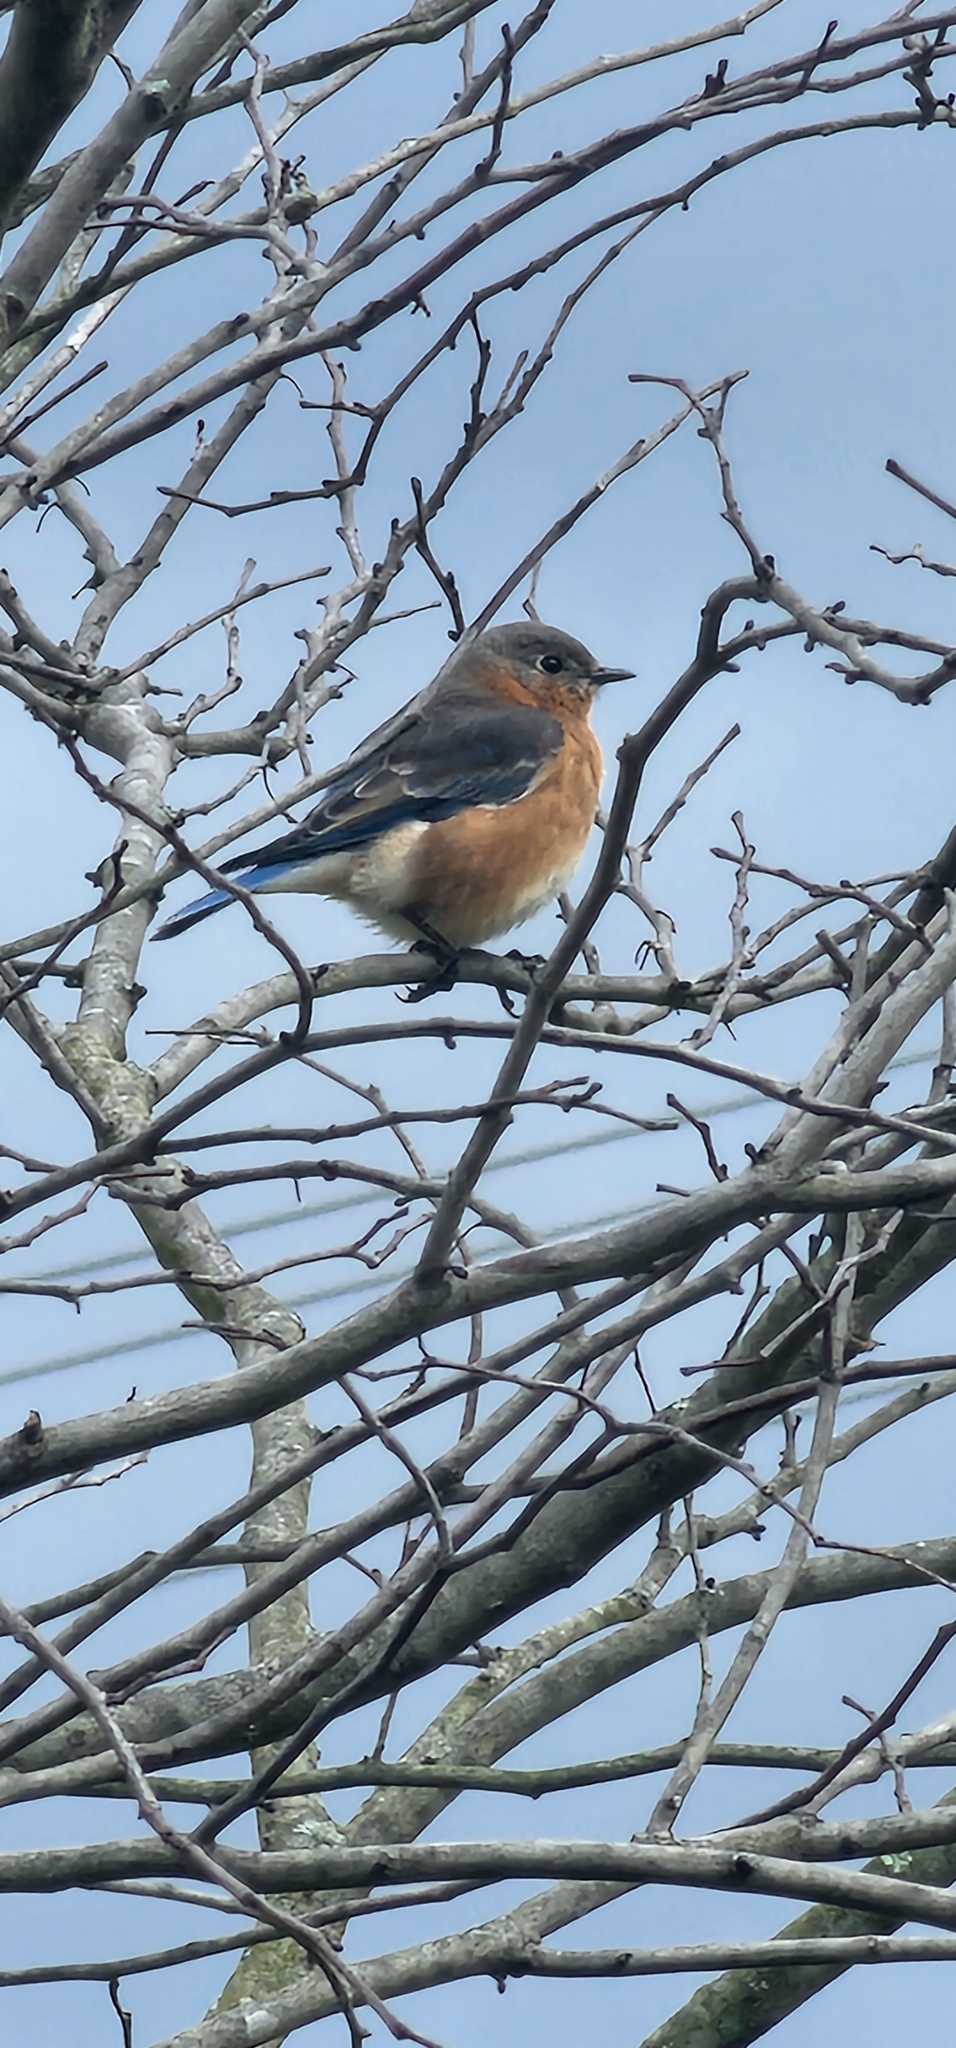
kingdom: Animalia
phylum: Chordata
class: Aves
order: Passeriformes
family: Turdidae
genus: Sialia
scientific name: Sialia sialis
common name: Eastern bluebird
